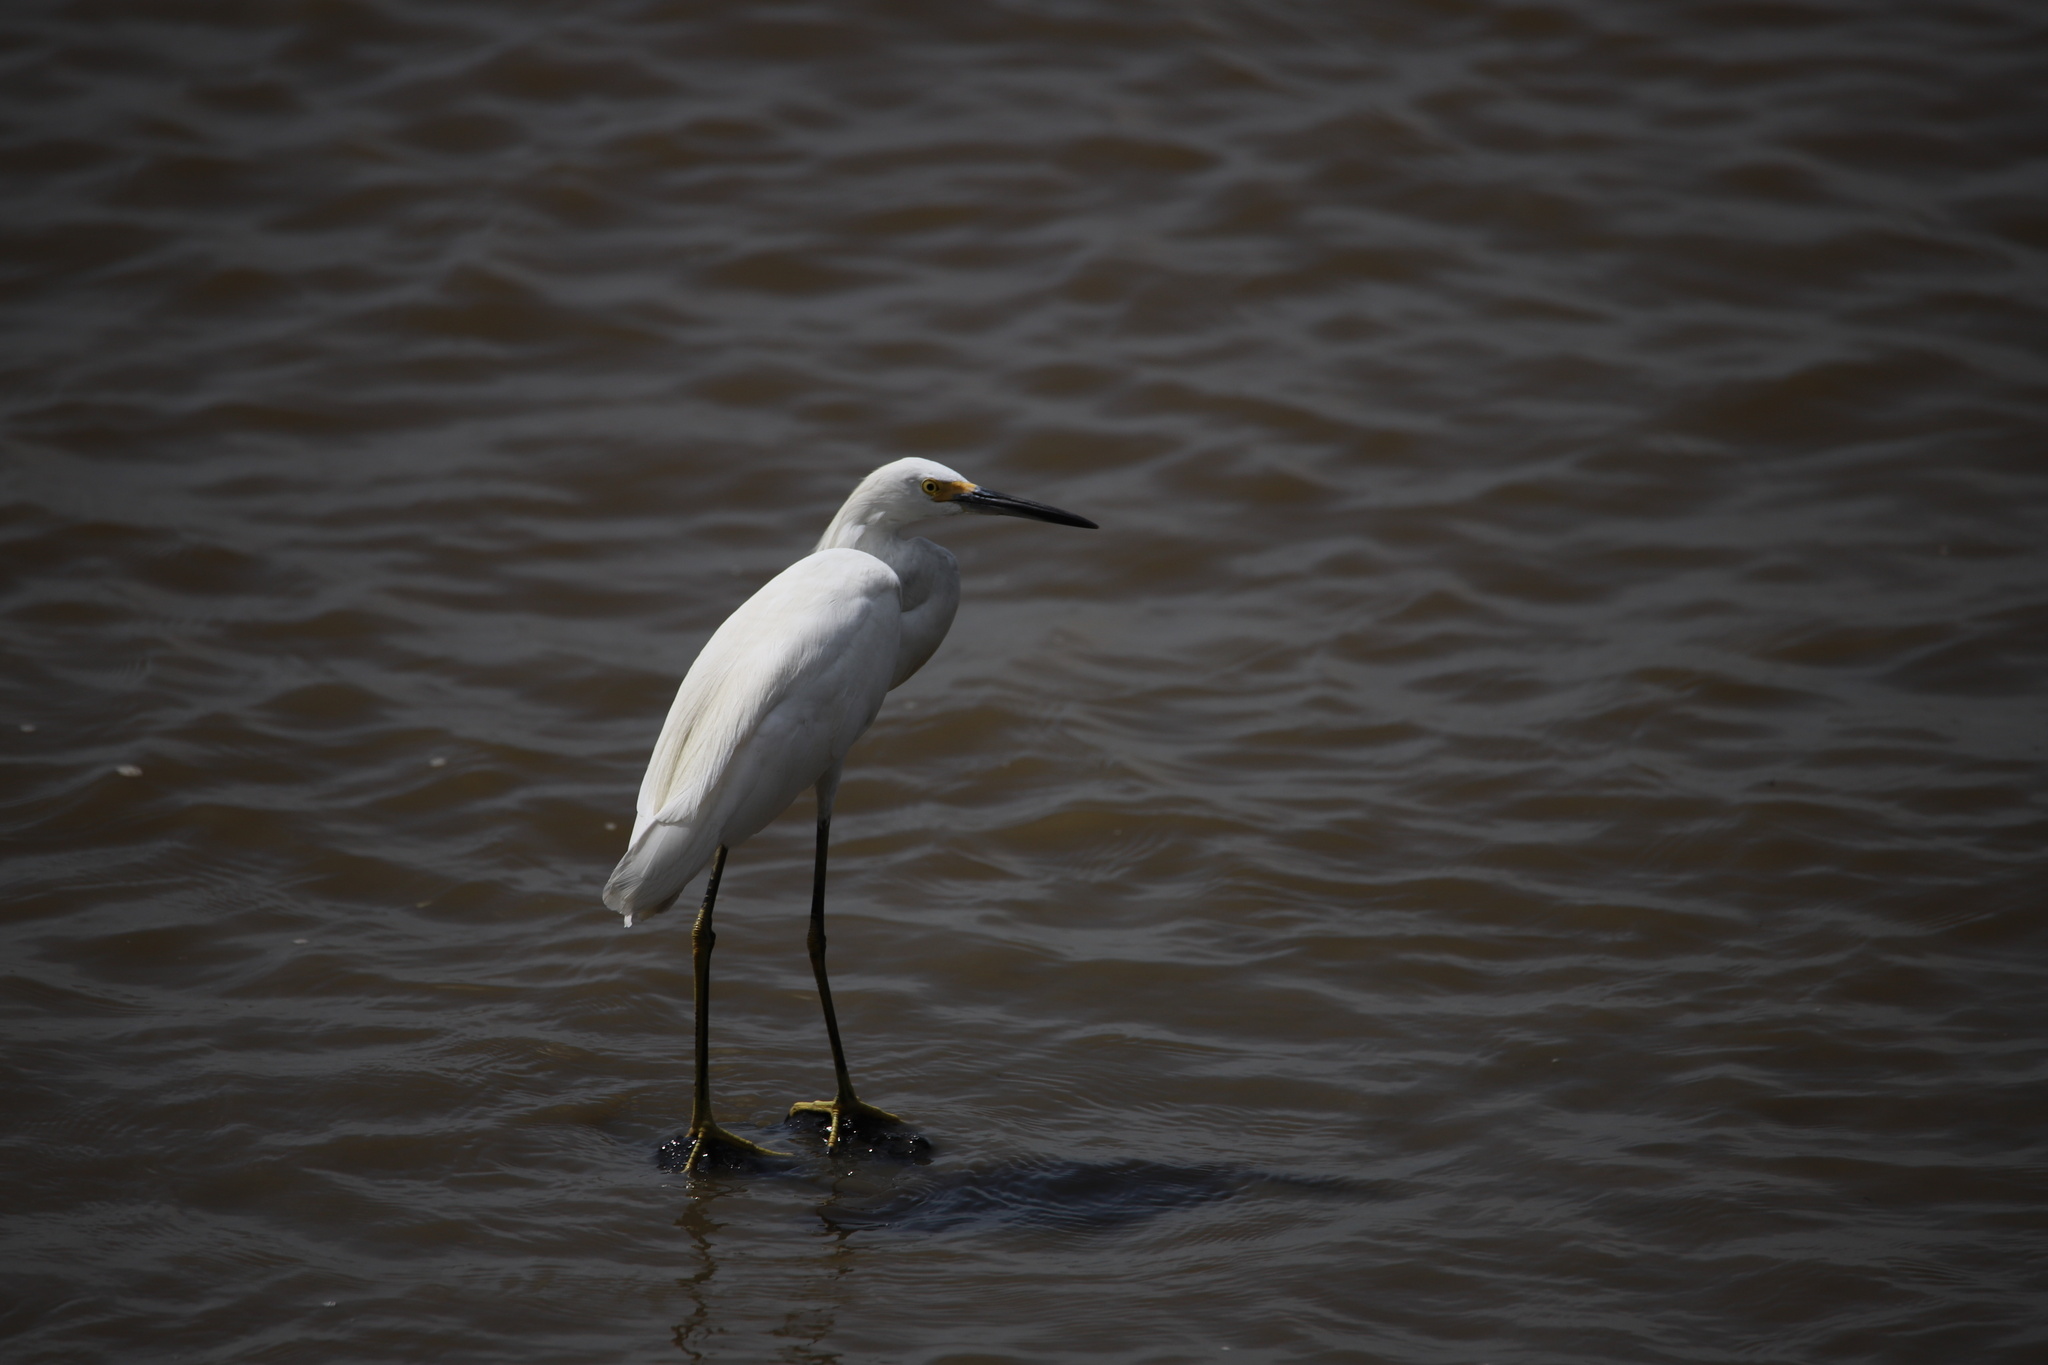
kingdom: Animalia
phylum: Chordata
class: Aves
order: Pelecaniformes
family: Ardeidae
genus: Egretta
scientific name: Egretta thula
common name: Snowy egret
